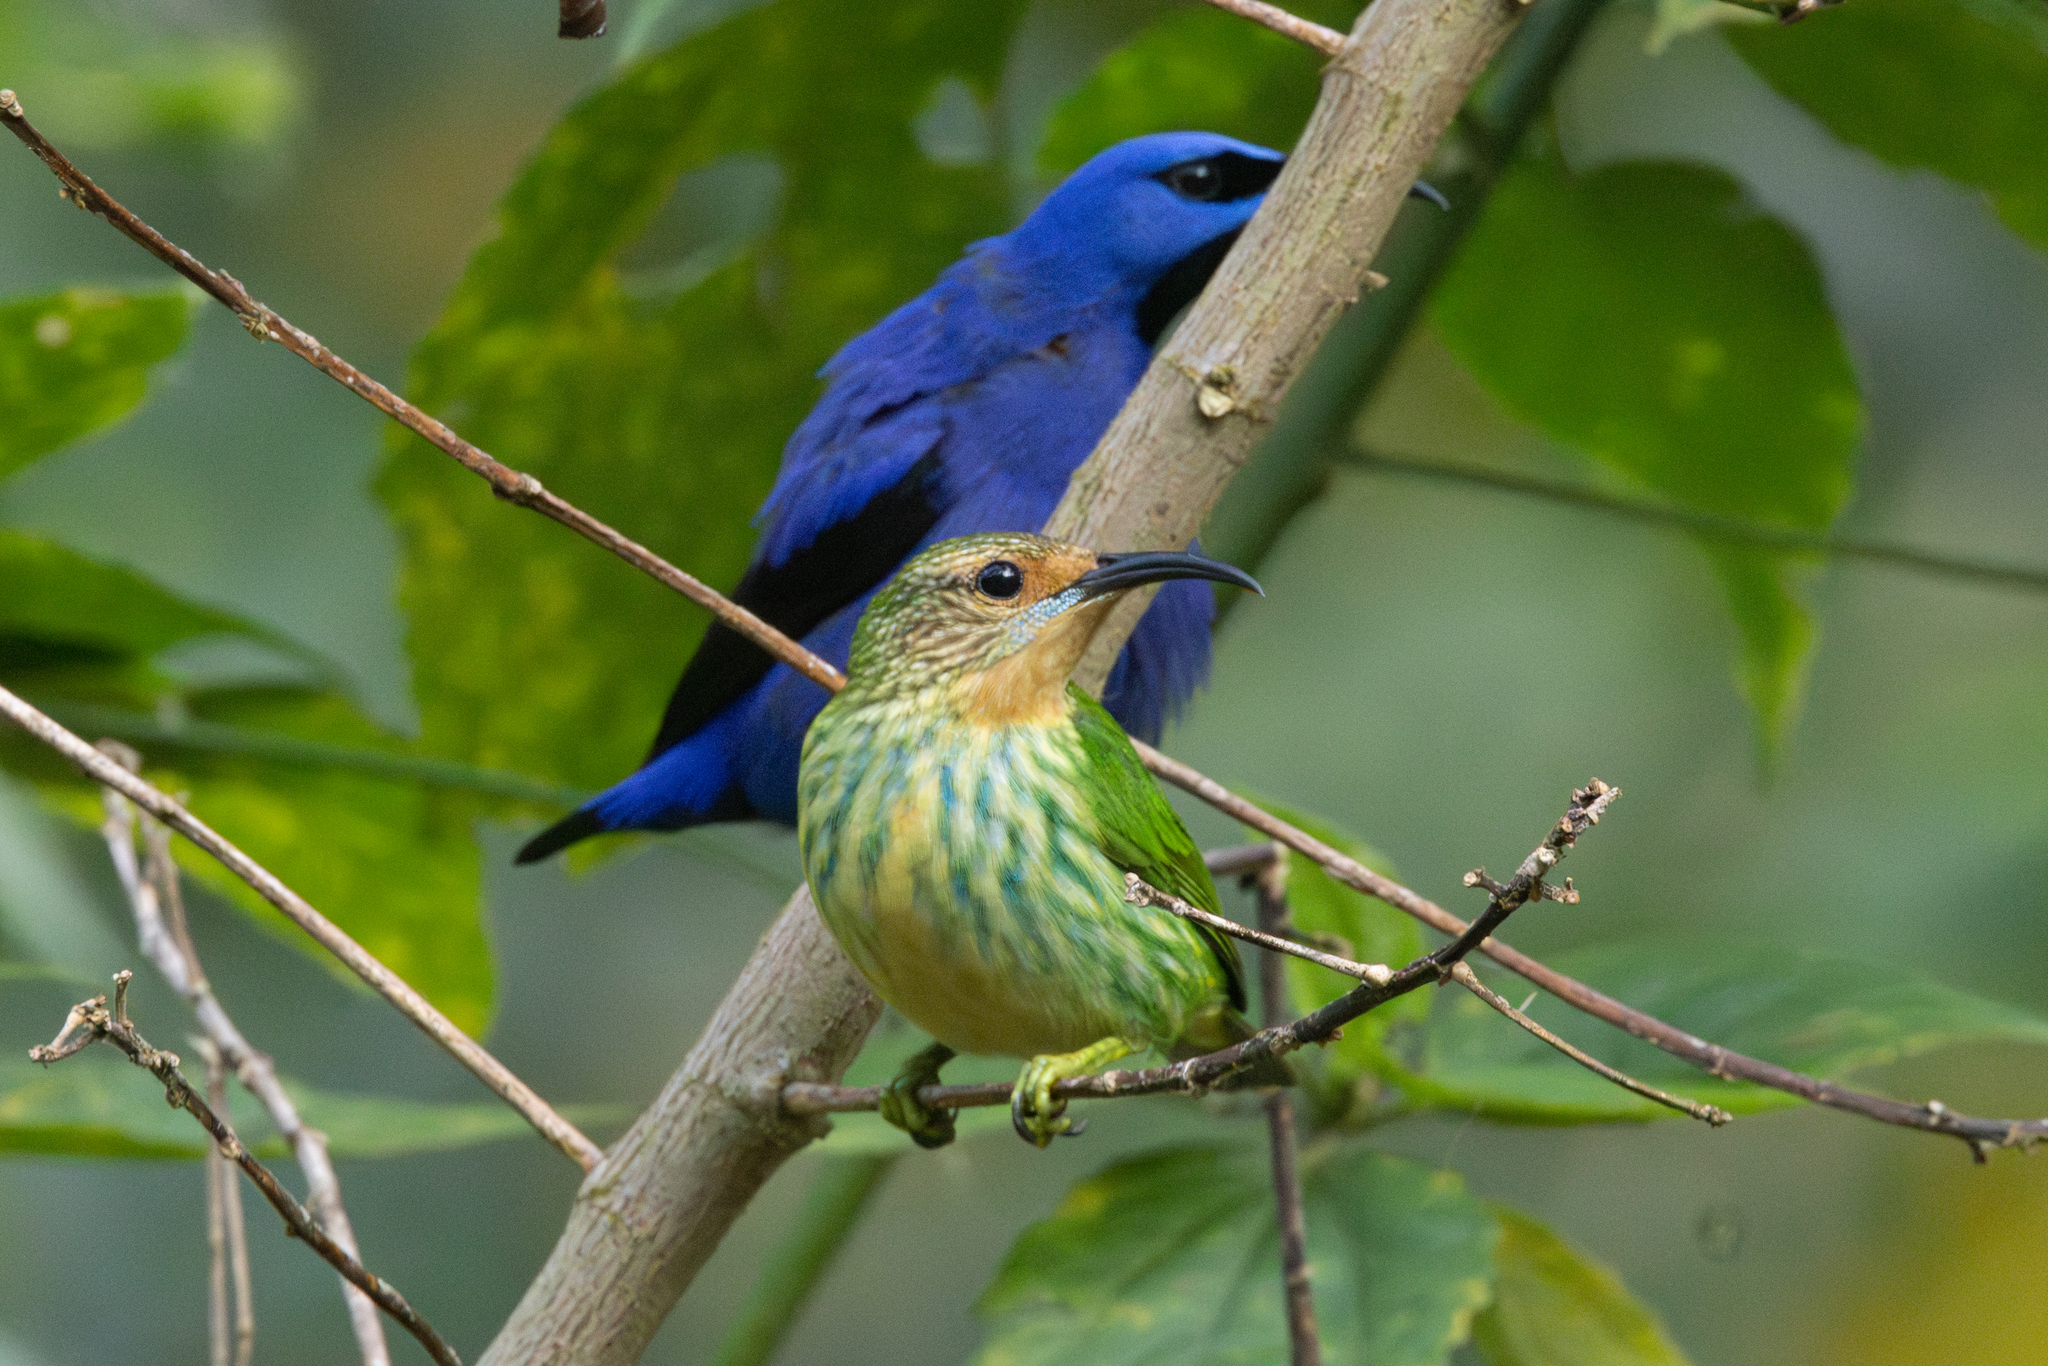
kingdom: Animalia
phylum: Chordata
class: Aves
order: Passeriformes
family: Thraupidae
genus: Cyanerpes
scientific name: Cyanerpes caeruleus
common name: Purple honeycreeper
